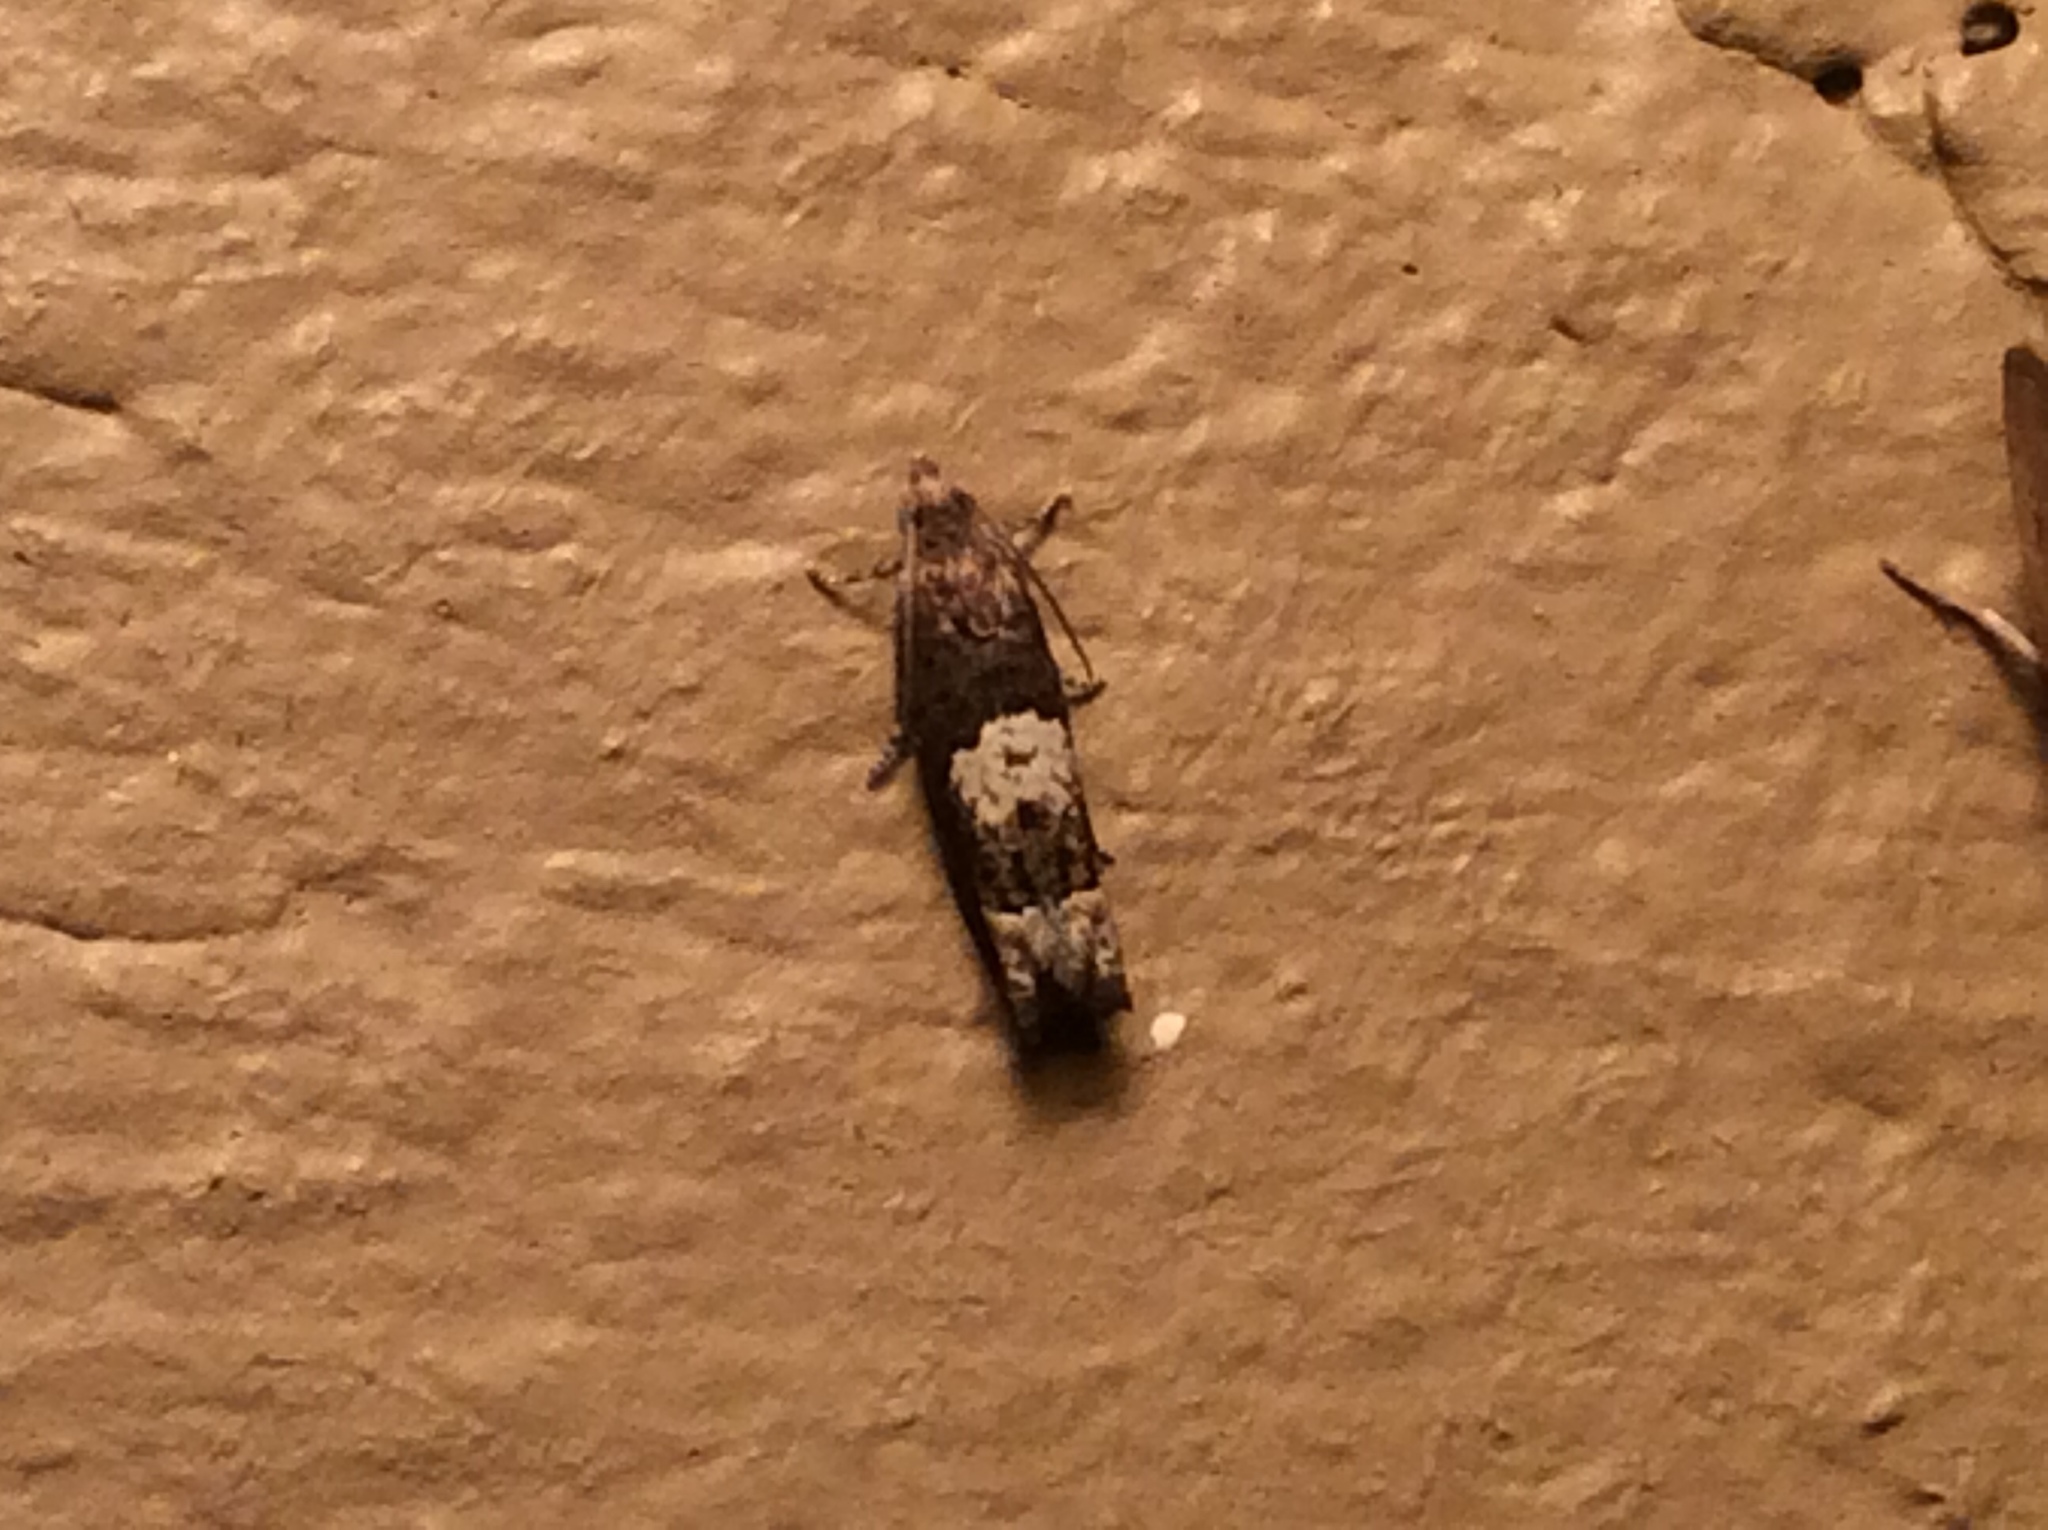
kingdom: Animalia
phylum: Arthropoda
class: Insecta
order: Lepidoptera
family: Tortricidae
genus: Eucosma
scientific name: Eucosma parmatana
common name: Aster eucosma moth
